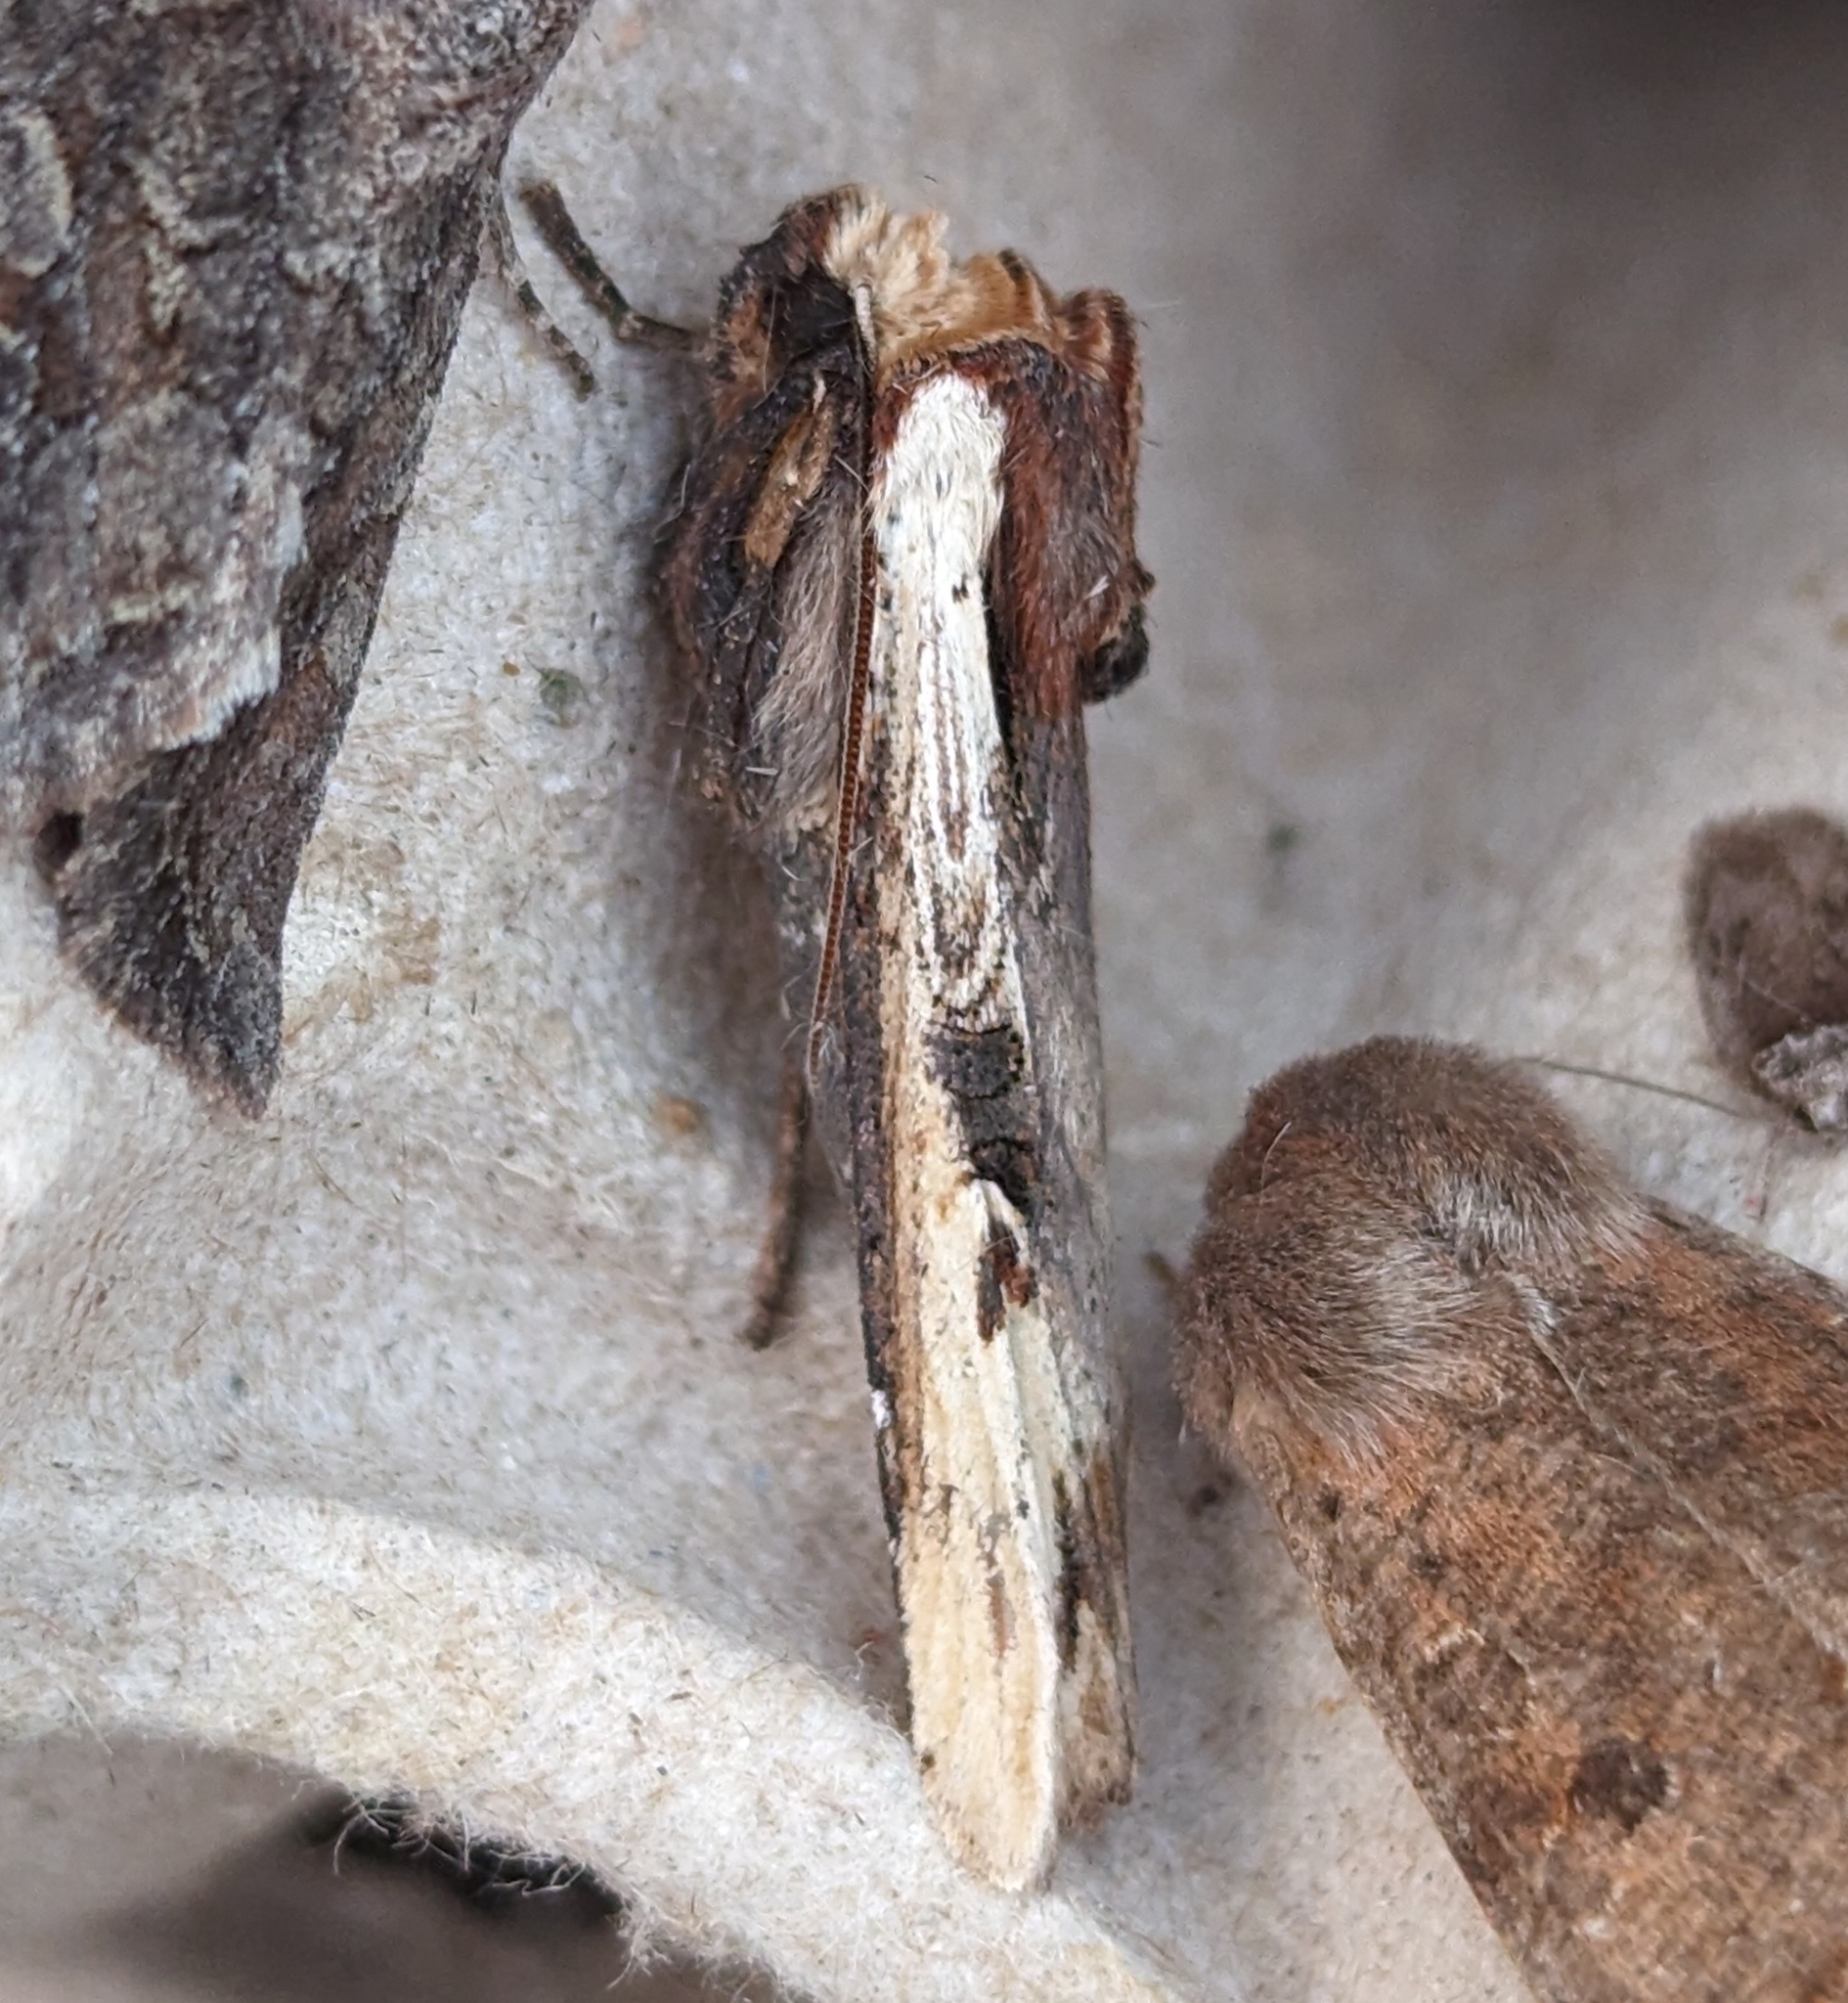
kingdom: Animalia
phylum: Arthropoda
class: Insecta
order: Lepidoptera
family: Noctuidae
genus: Xylena
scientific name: Xylena curvimacula
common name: Dot-and-dash swordgrass moth
